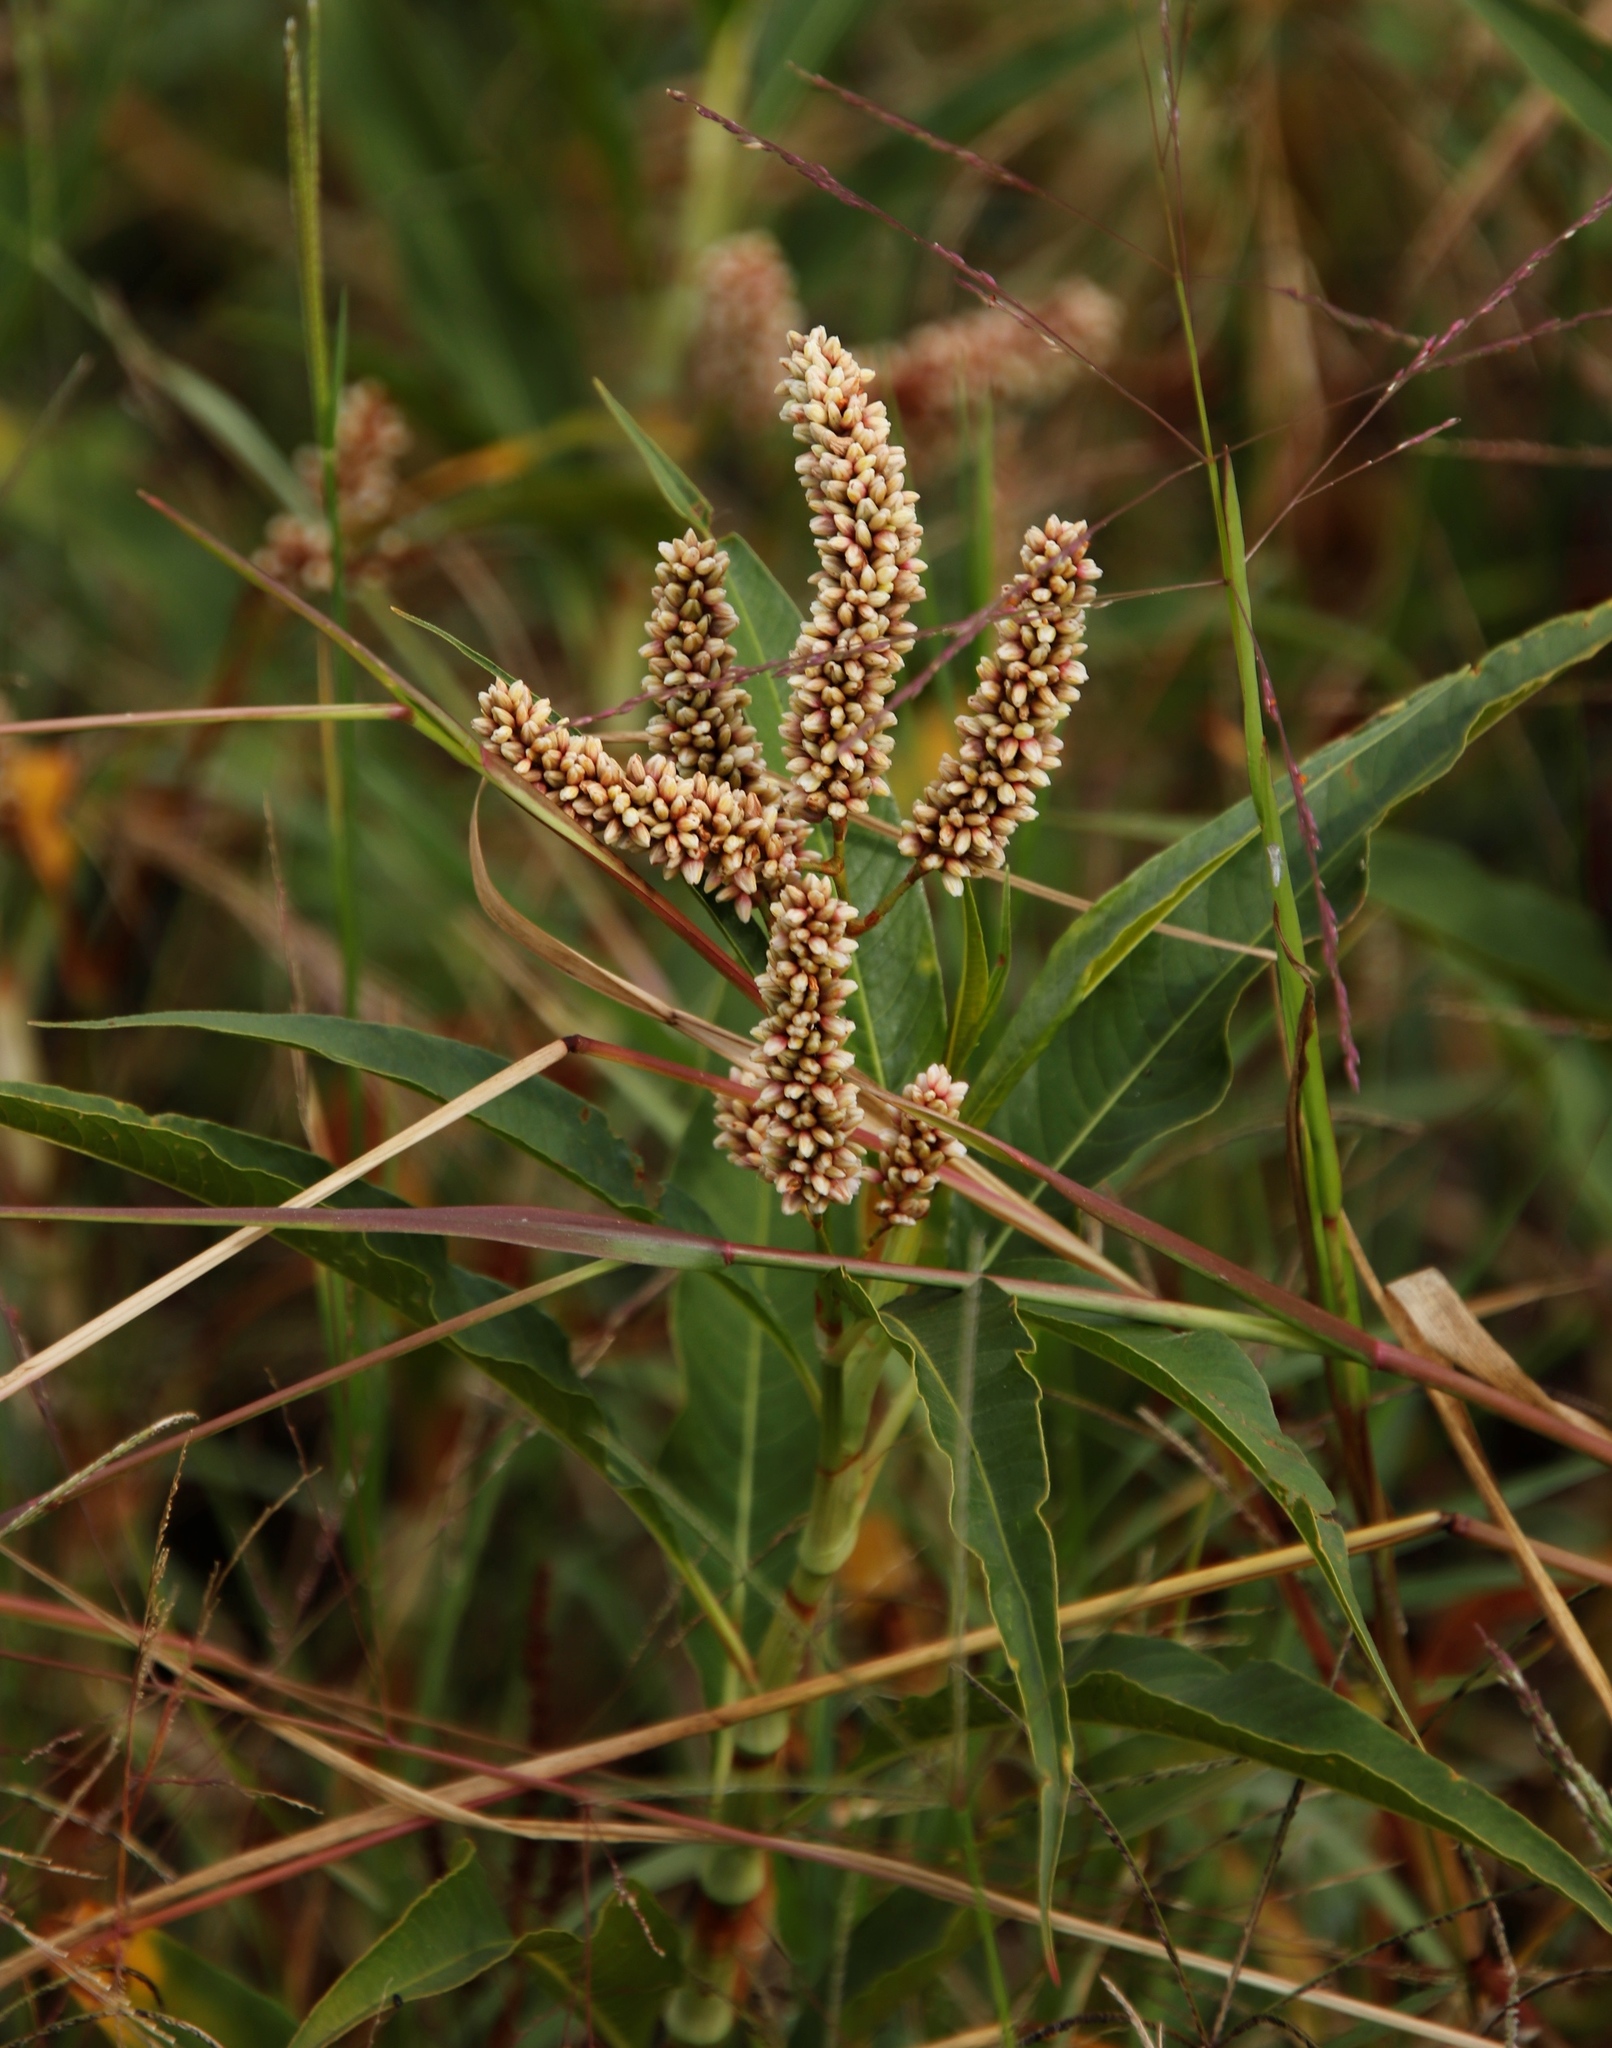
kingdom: Plantae
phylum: Tracheophyta
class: Magnoliopsida
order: Caryophyllales
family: Polygonaceae
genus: Persicaria
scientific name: Persicaria senegalensis
